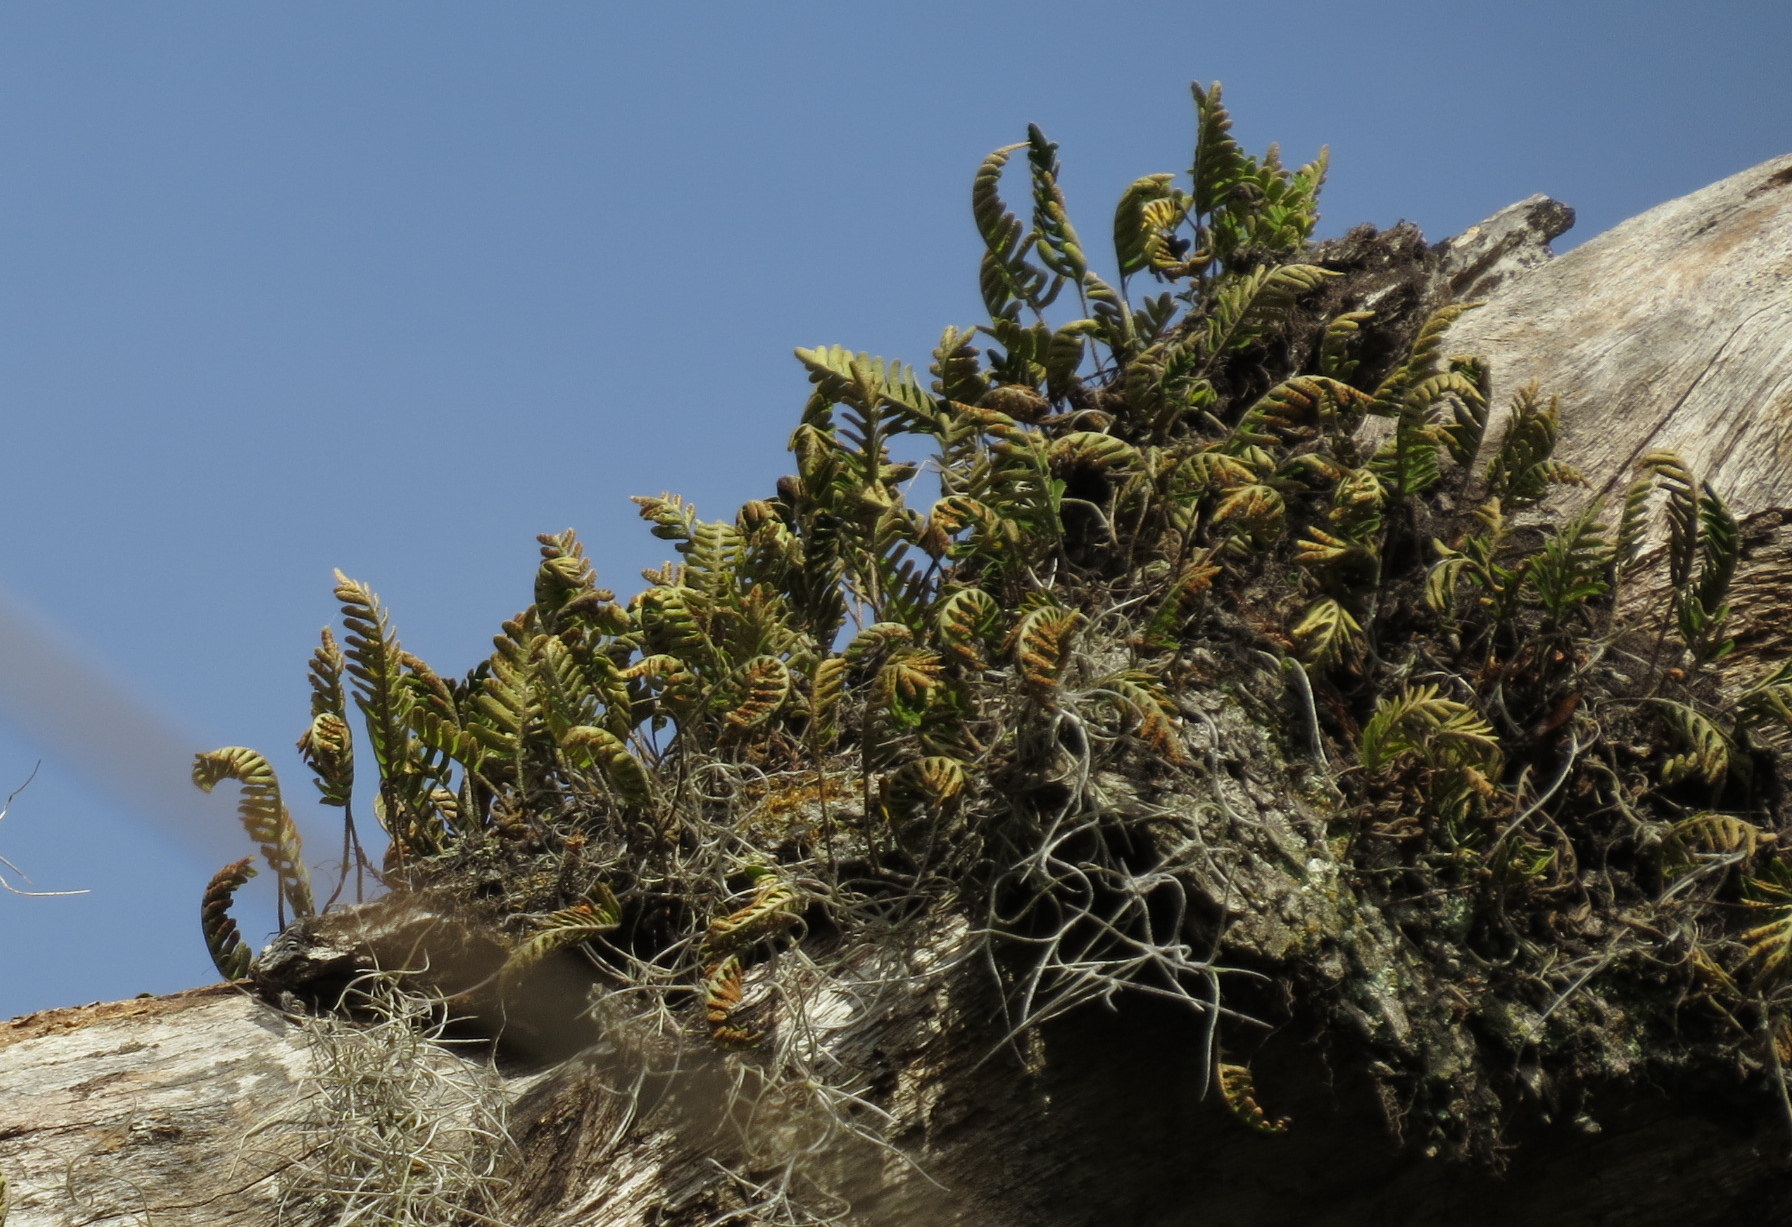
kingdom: Plantae
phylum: Tracheophyta
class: Polypodiopsida
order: Polypodiales
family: Polypodiaceae
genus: Pleopeltis
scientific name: Pleopeltis michauxiana
